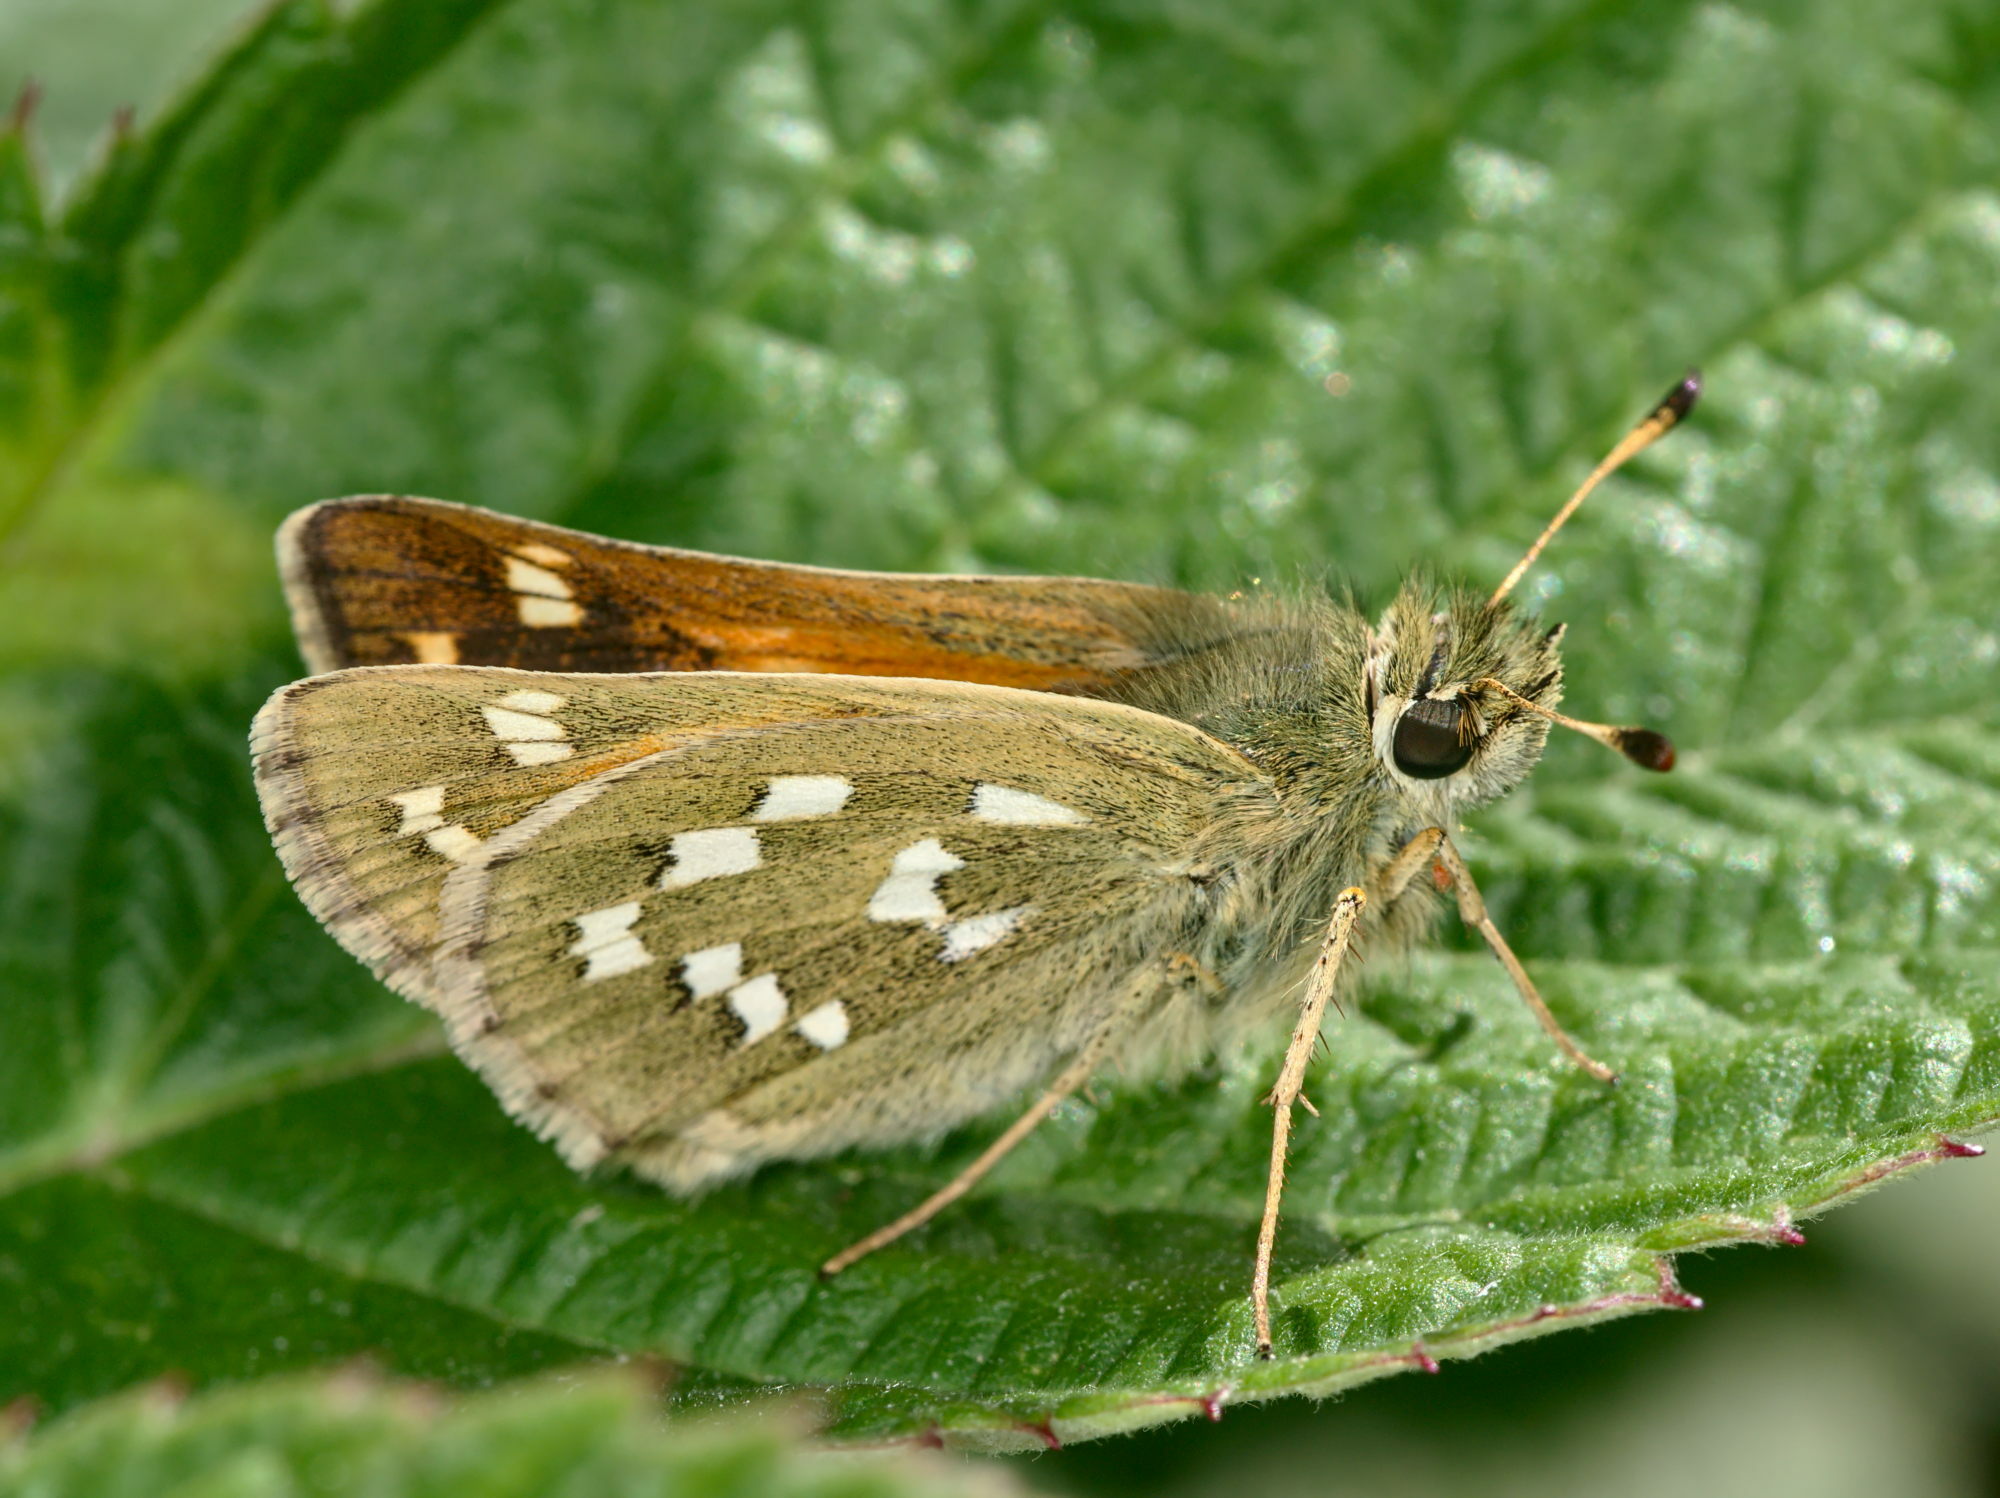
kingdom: Animalia
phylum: Arthropoda
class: Insecta
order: Lepidoptera
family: Hesperiidae
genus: Hesperia
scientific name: Hesperia comma
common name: Common branded skipper
